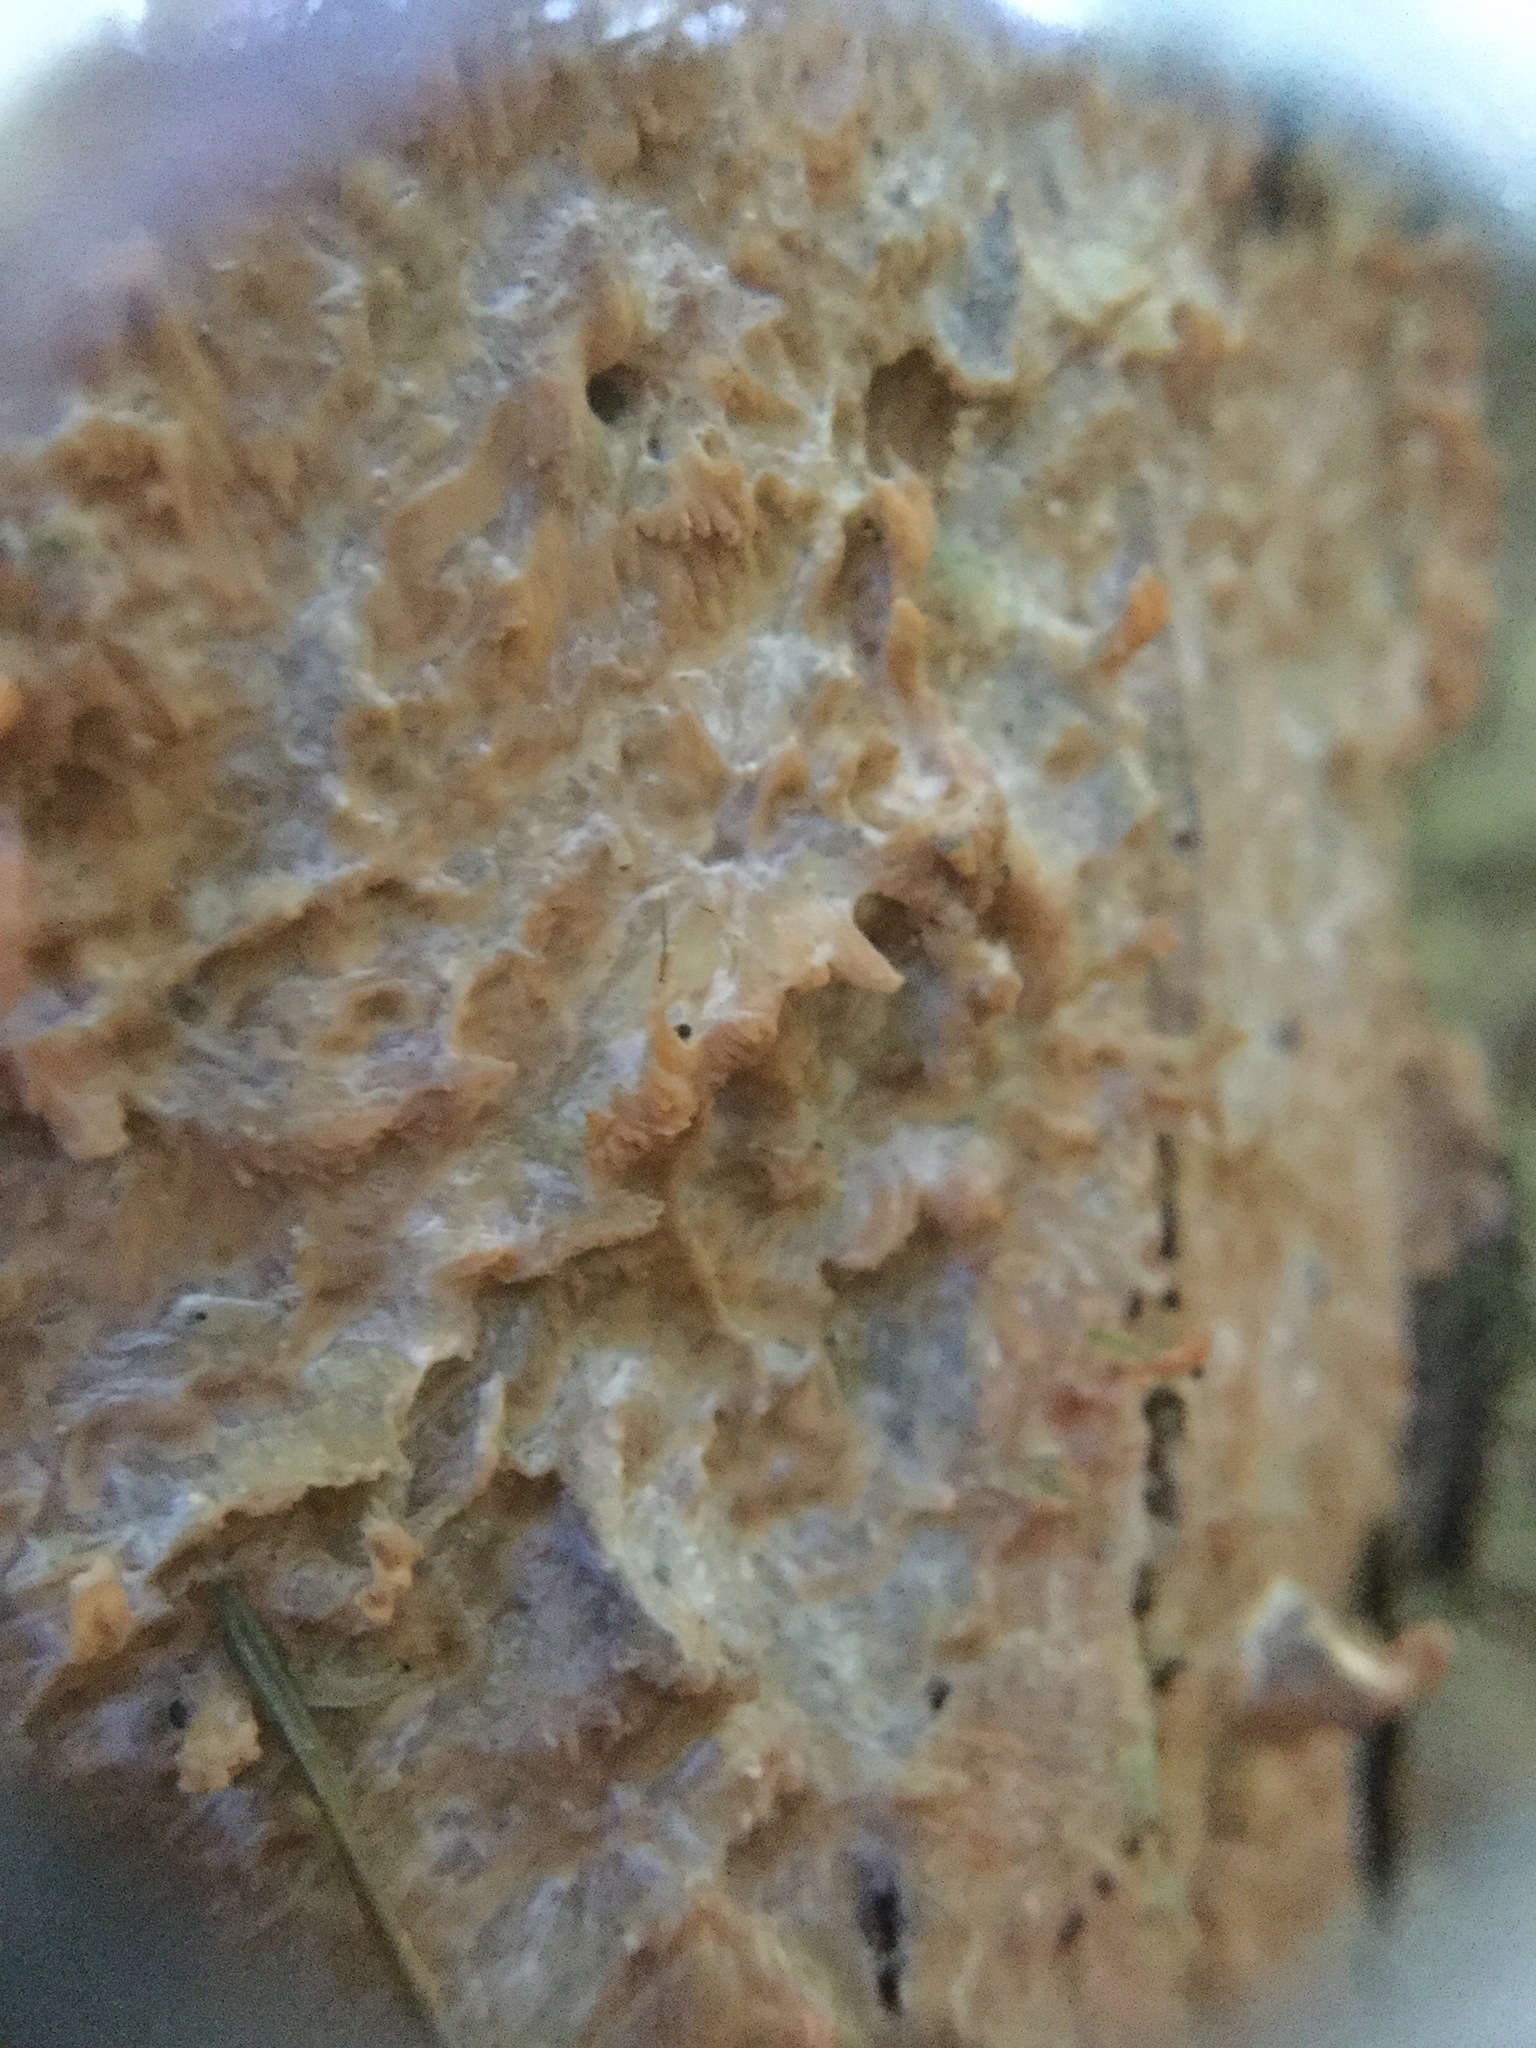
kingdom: Fungi
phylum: Basidiomycota
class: Agaricomycetes
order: Polyporales
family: Meruliaceae
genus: Phlebia
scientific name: Phlebia radiata
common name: Wrinkled crust
